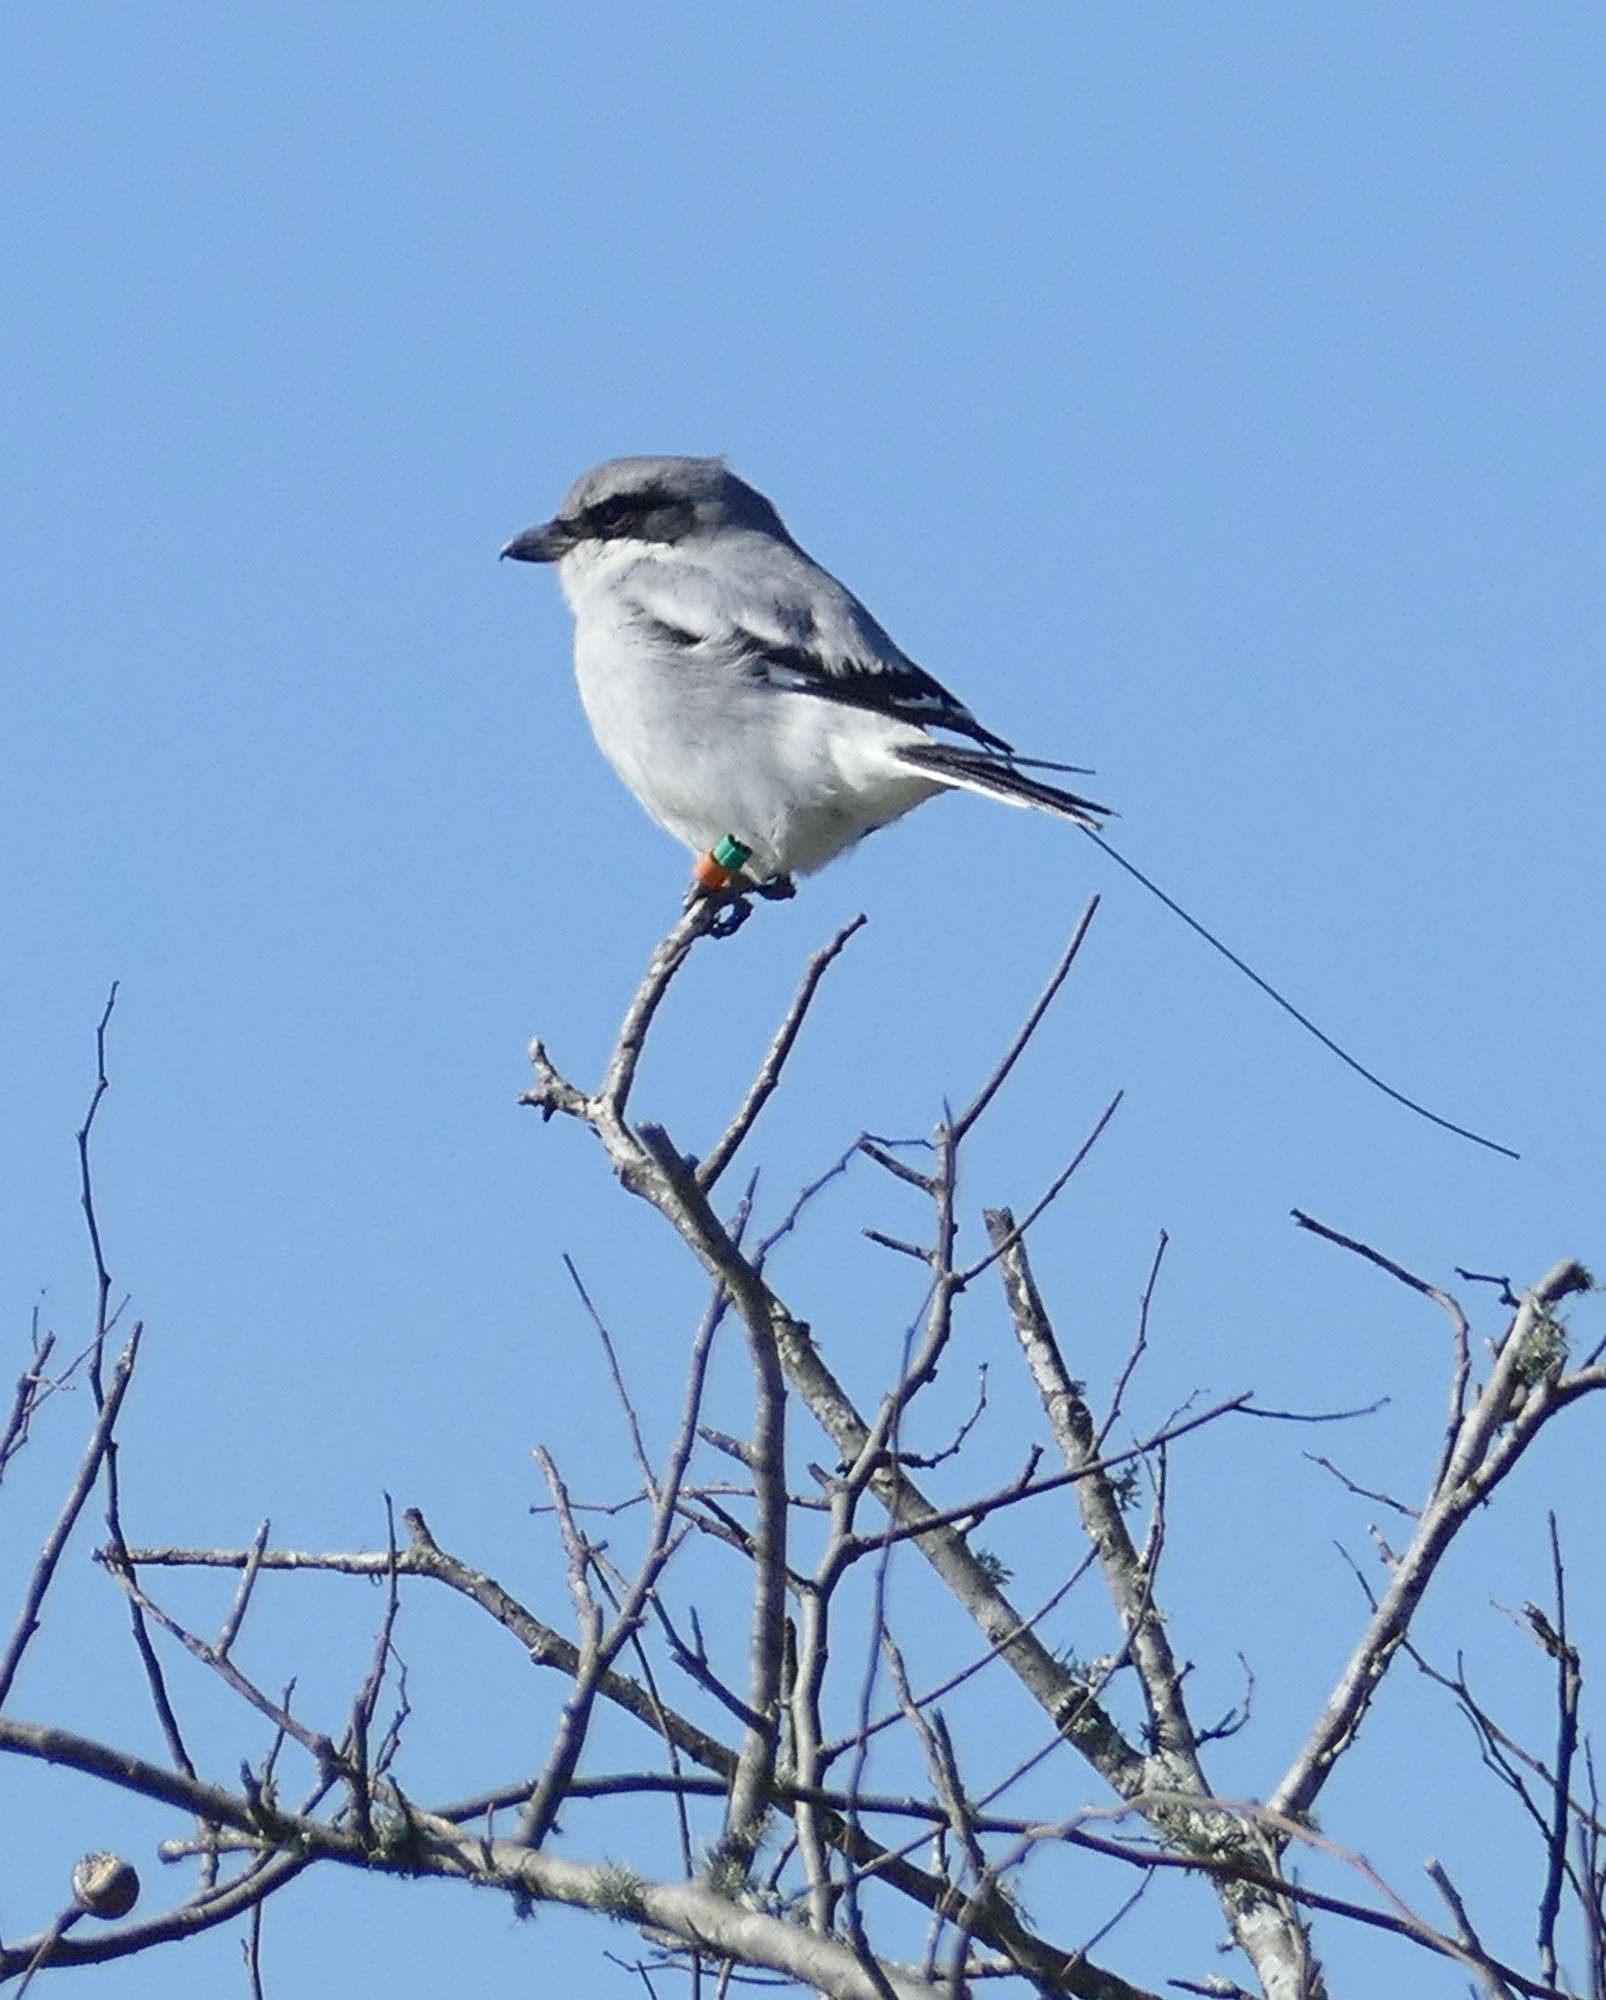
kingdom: Animalia
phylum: Chordata
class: Aves
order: Passeriformes
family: Laniidae
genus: Lanius
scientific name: Lanius ludovicianus
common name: Loggerhead shrike
